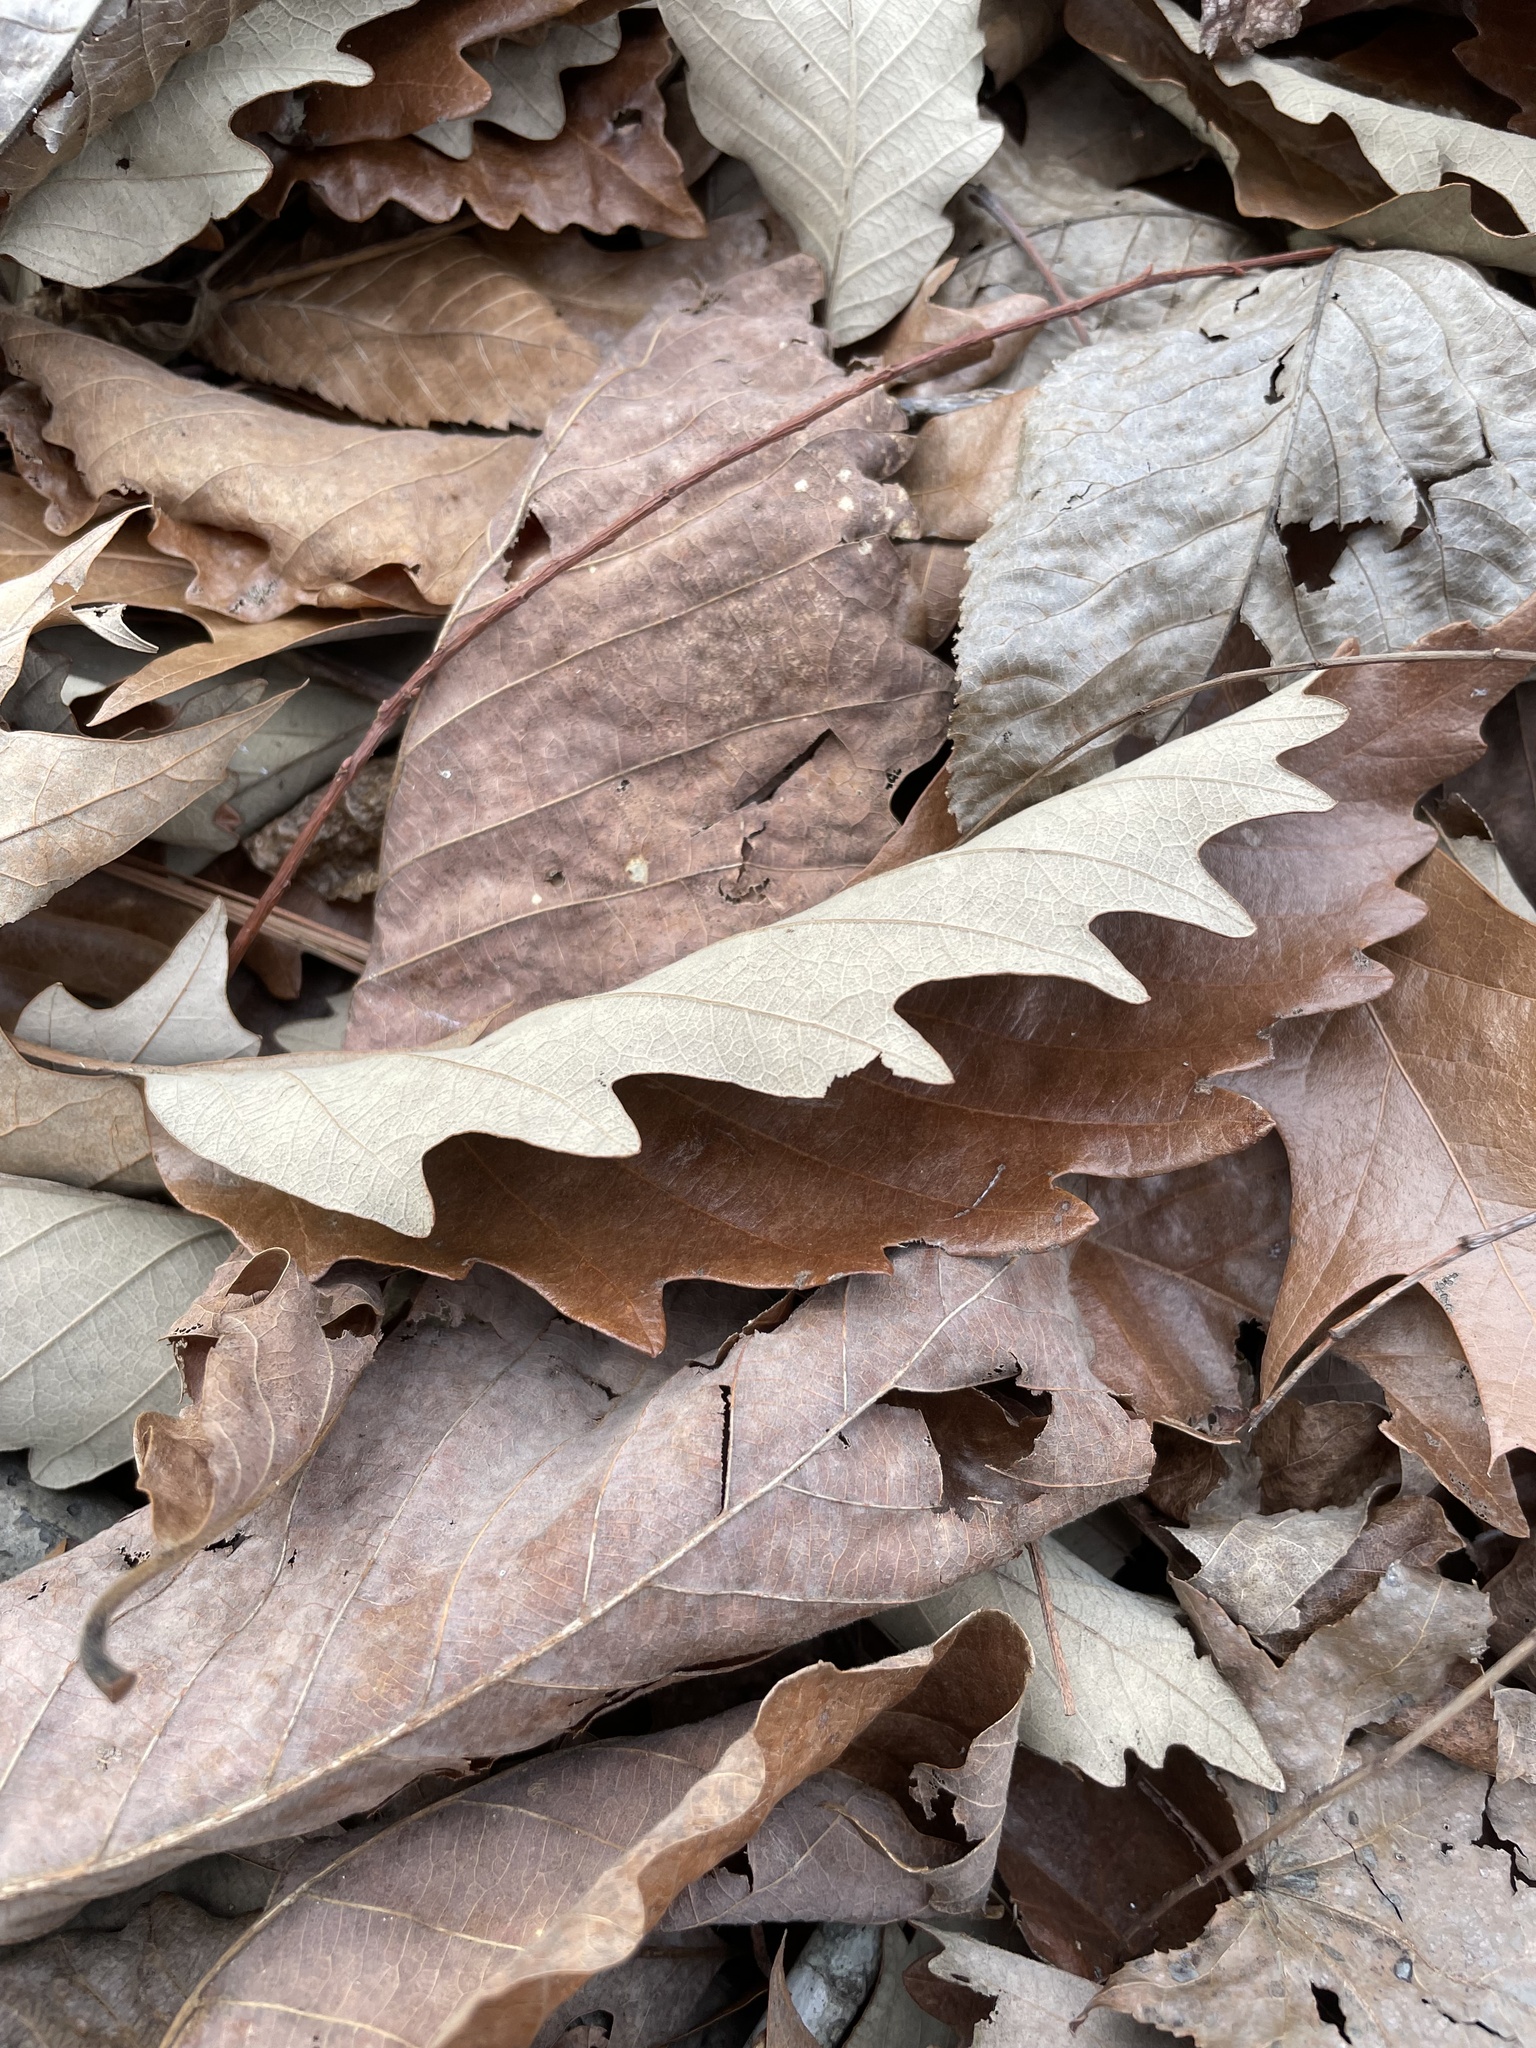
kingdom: Plantae
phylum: Tracheophyta
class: Magnoliopsida
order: Fagales
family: Fagaceae
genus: Quercus
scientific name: Quercus michauxii
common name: Swamp chestnut oak
